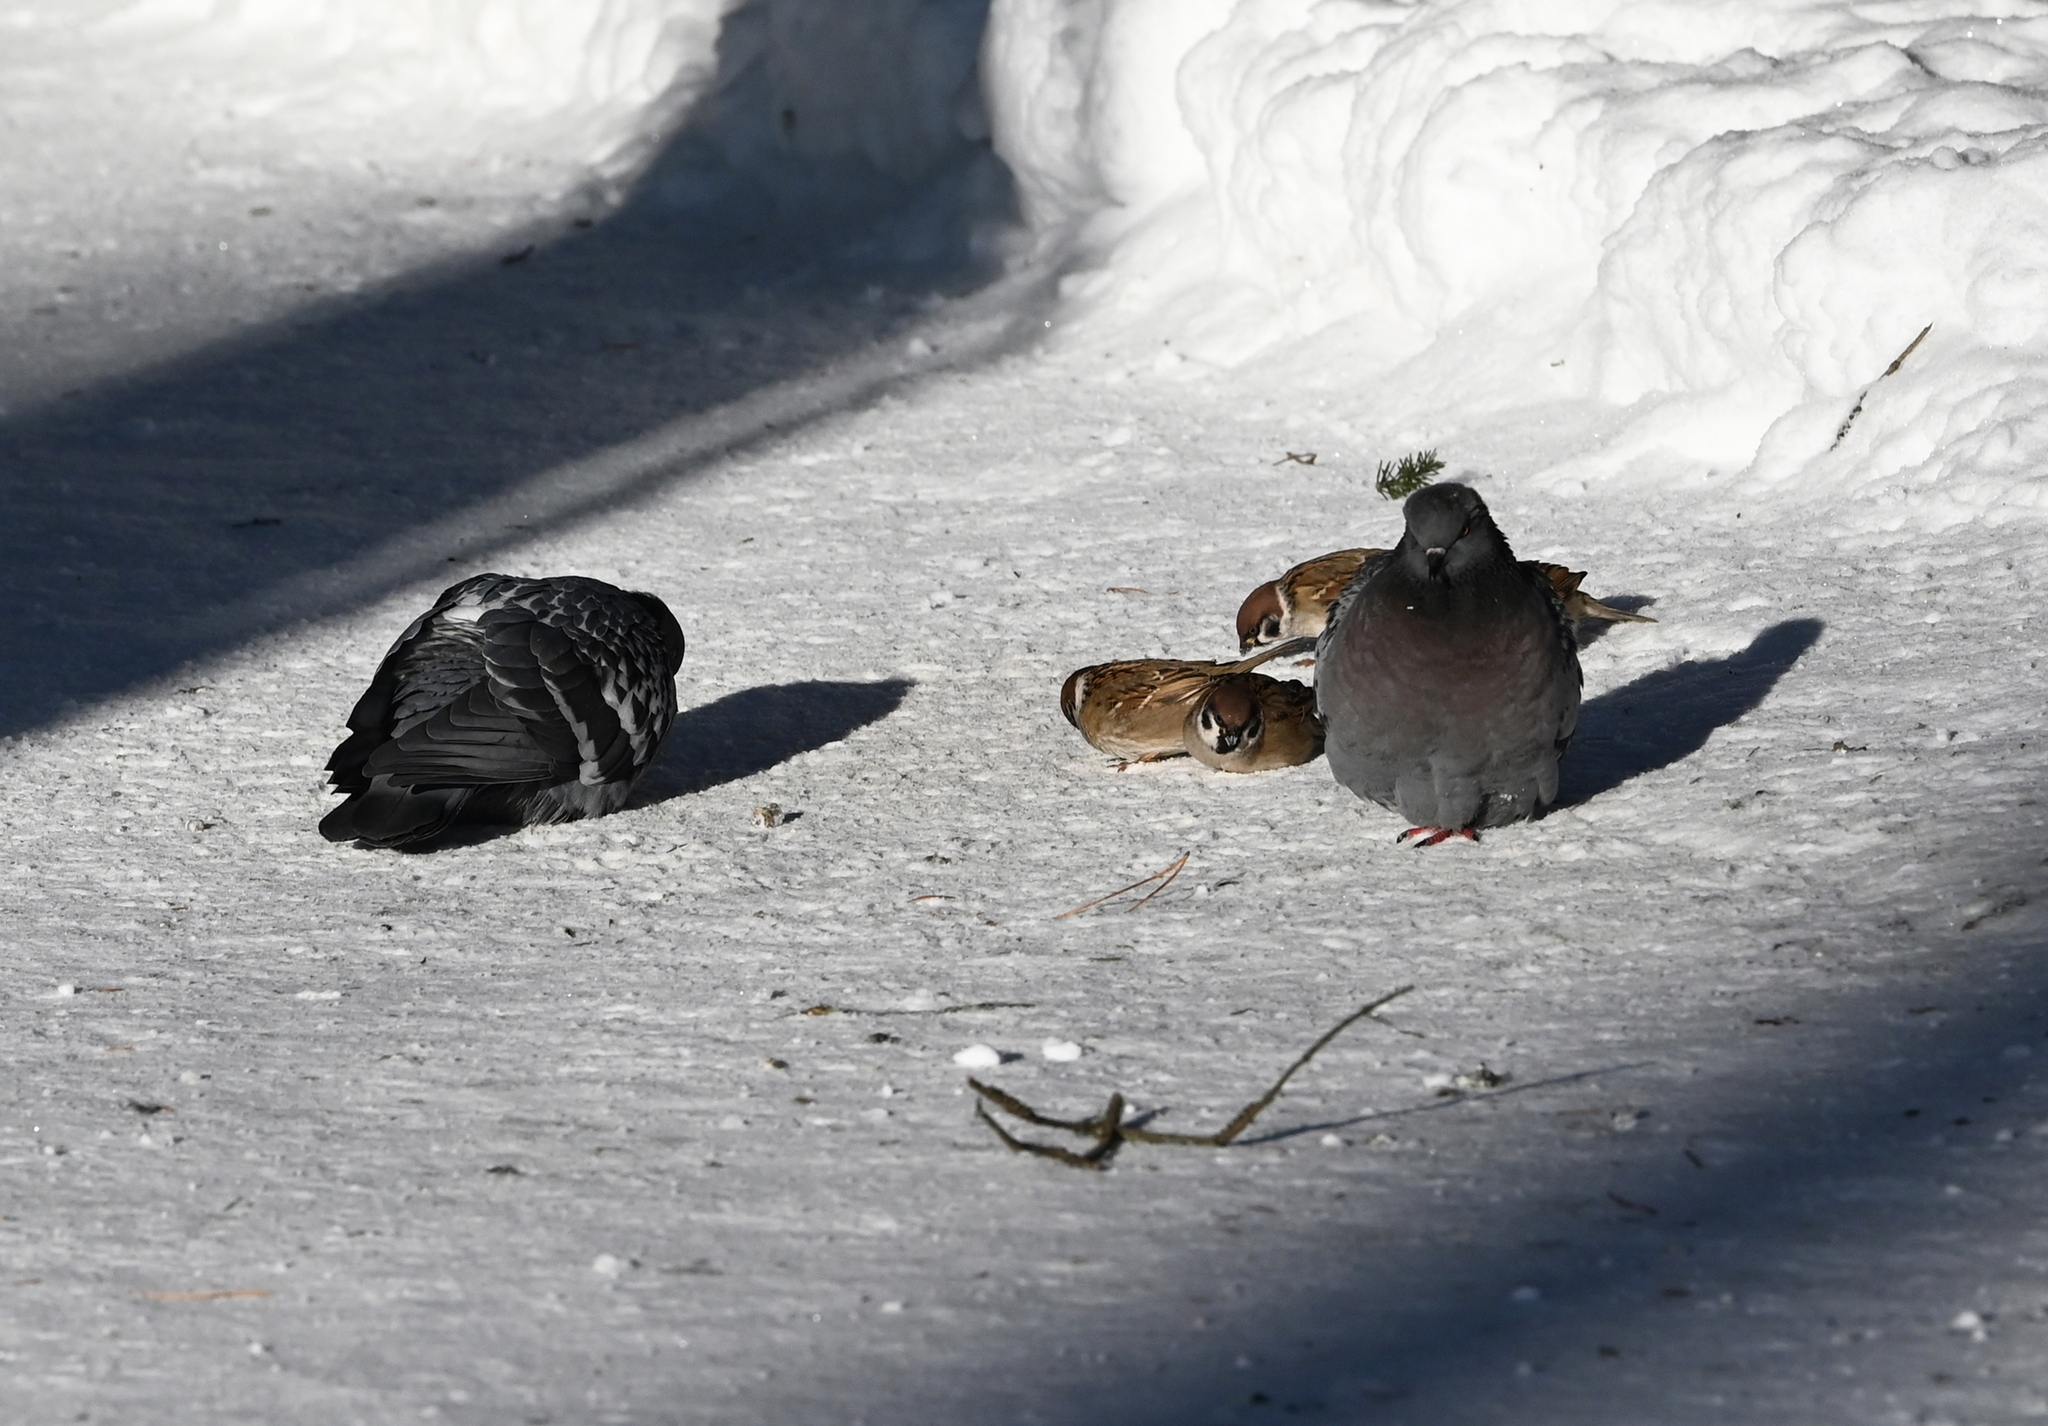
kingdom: Animalia
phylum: Chordata
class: Aves
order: Passeriformes
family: Passeridae
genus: Passer
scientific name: Passer montanus
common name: Eurasian tree sparrow
